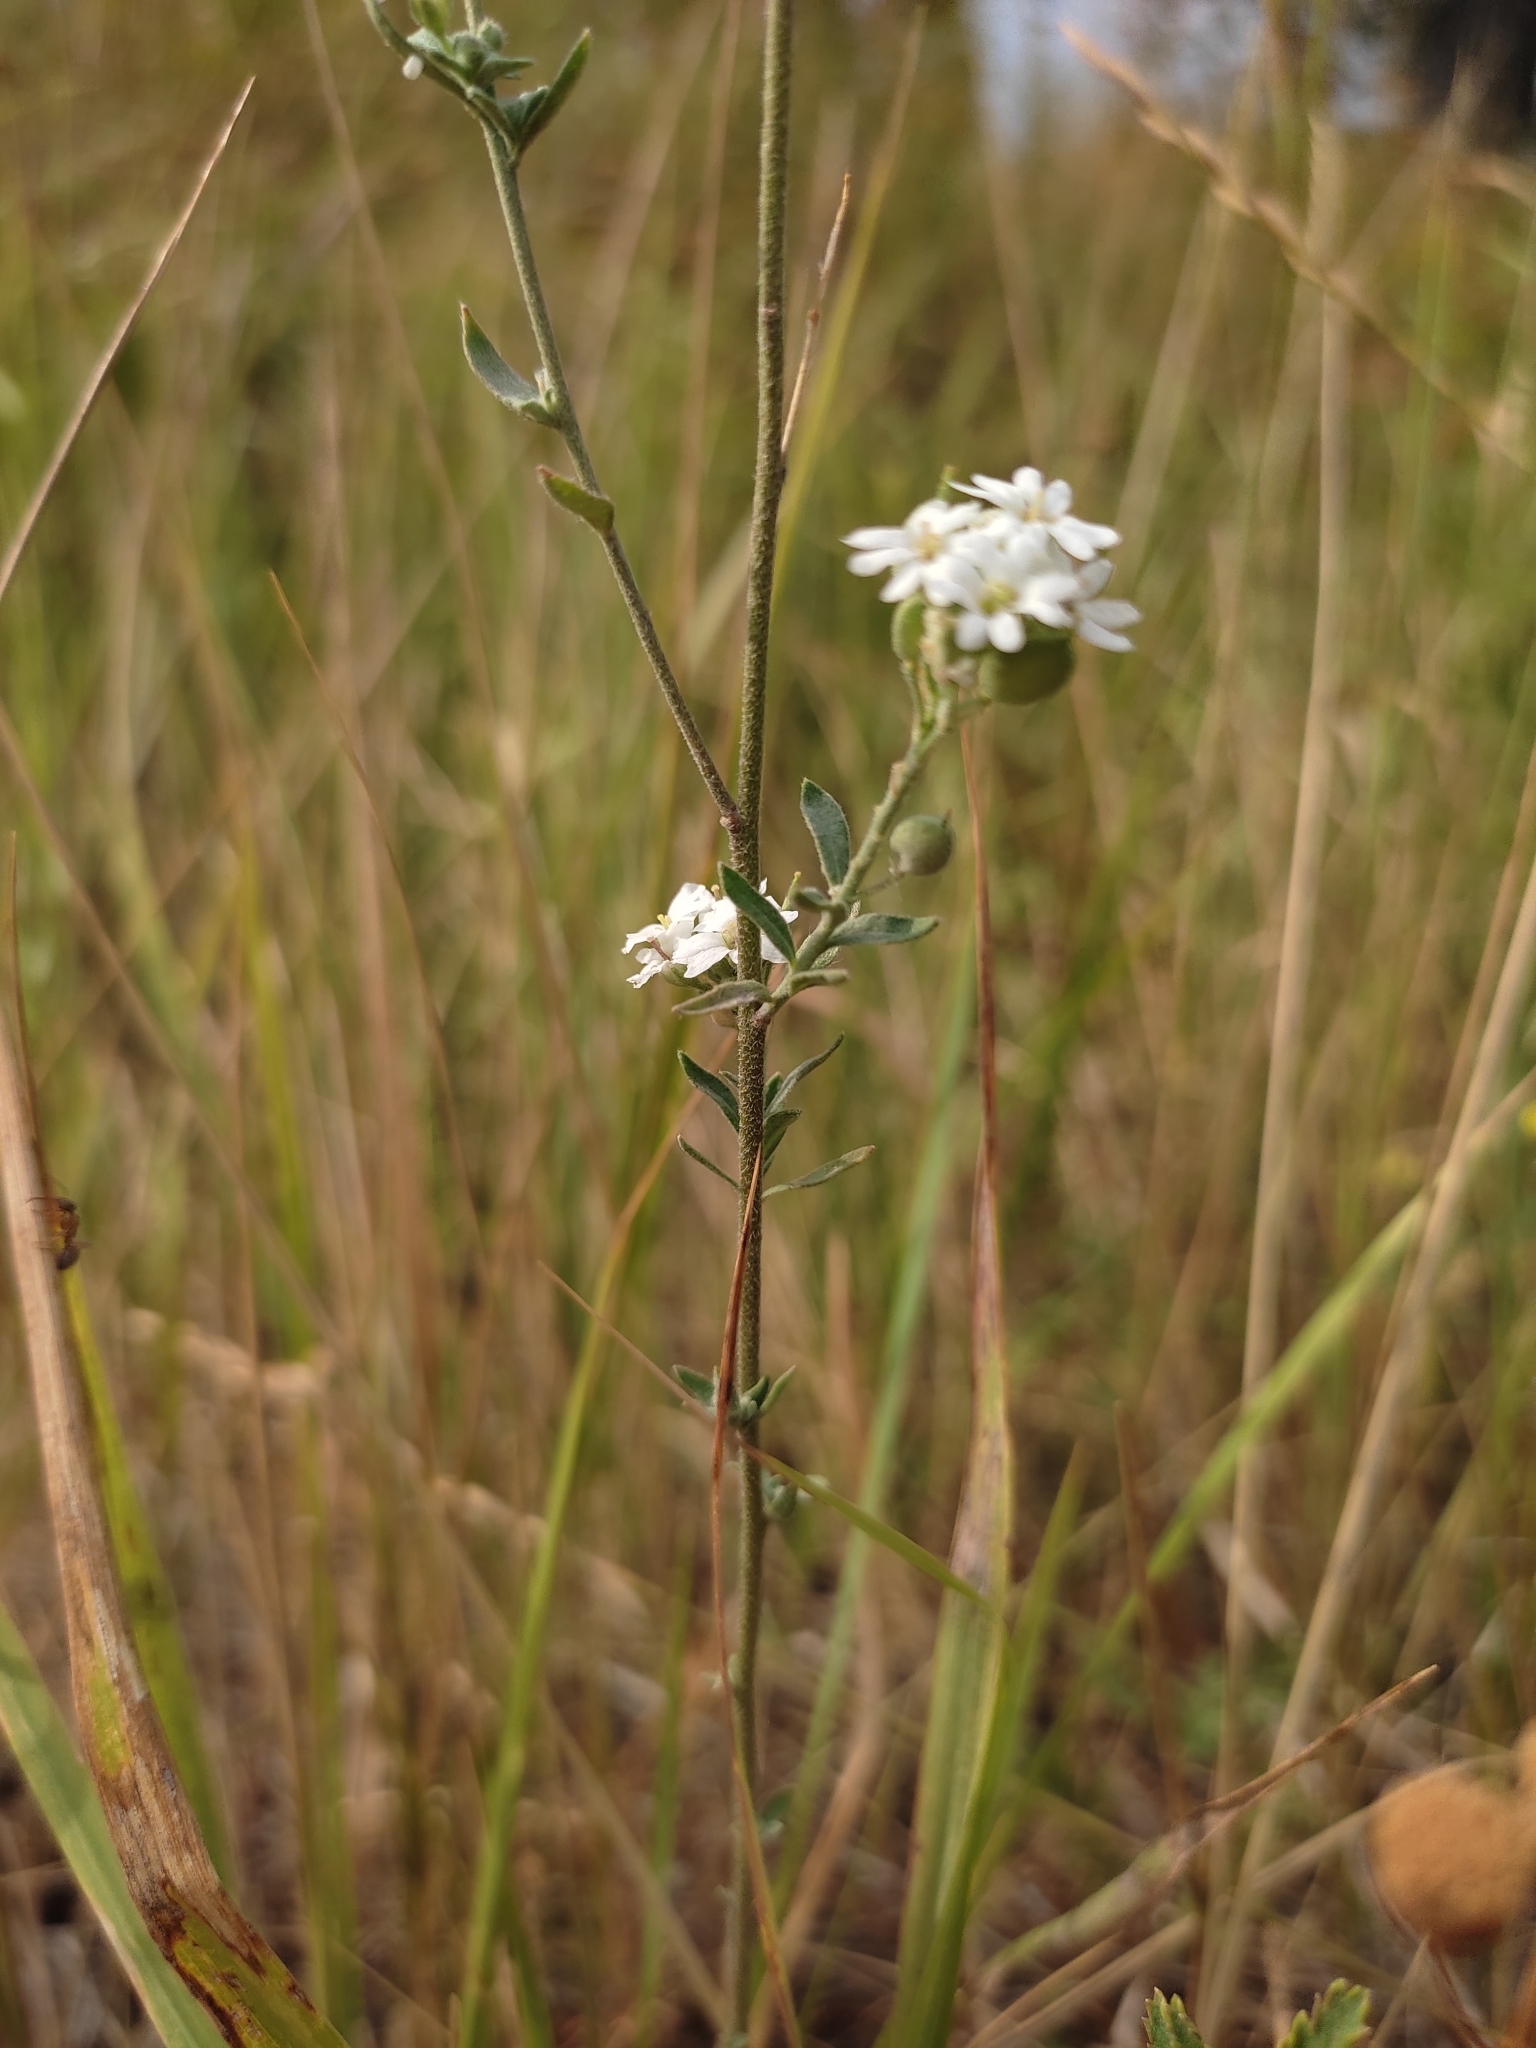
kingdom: Plantae
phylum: Tracheophyta
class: Magnoliopsida
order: Brassicales
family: Brassicaceae
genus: Berteroa
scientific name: Berteroa incana
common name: Hoary alison
